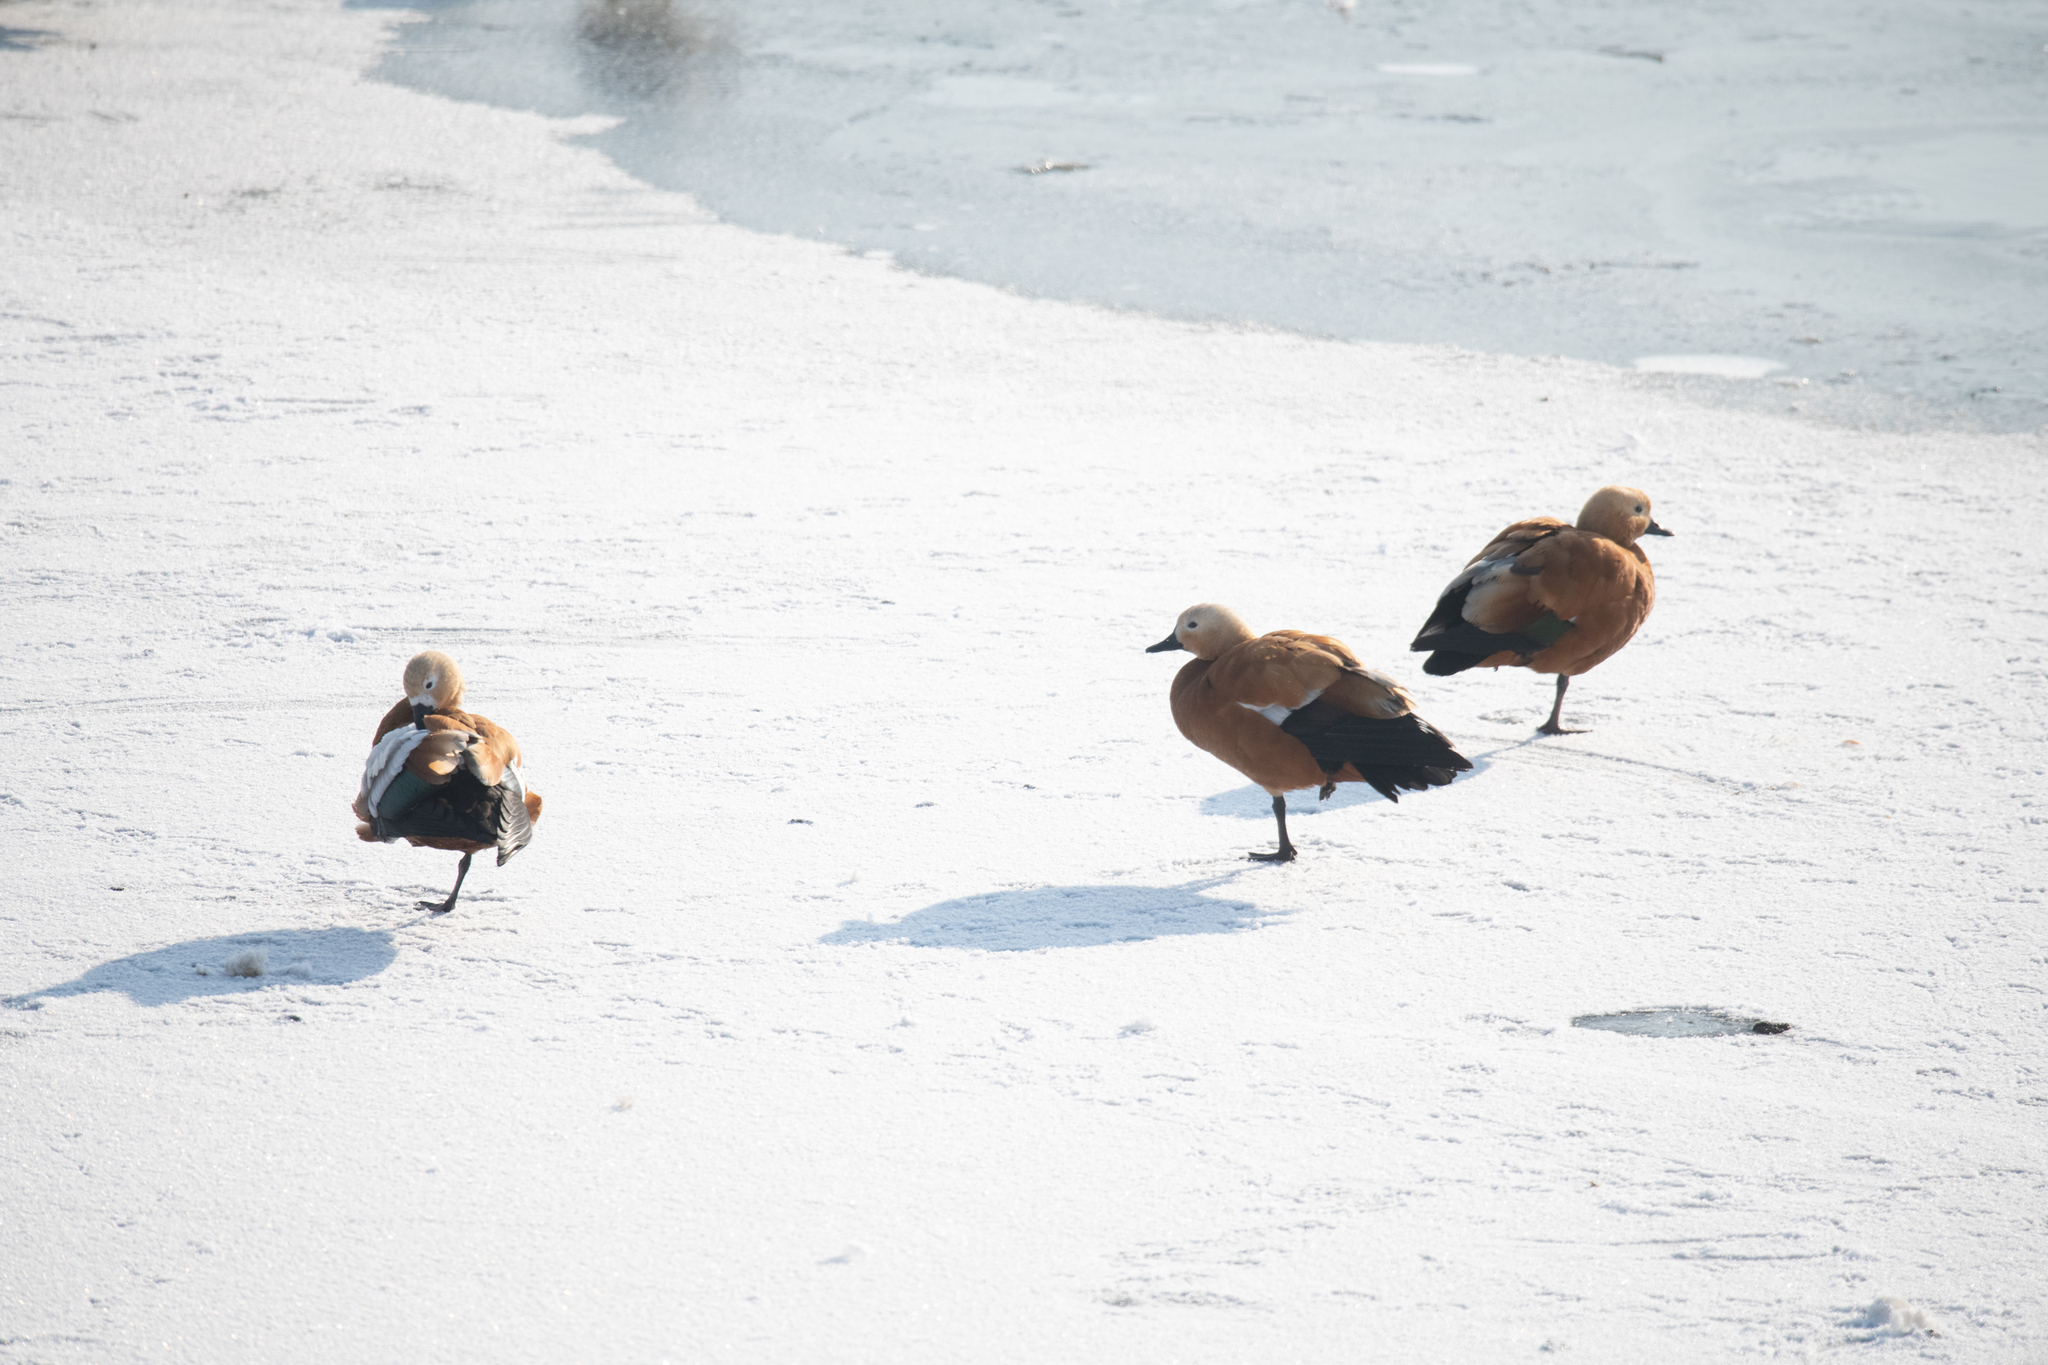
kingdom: Animalia
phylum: Chordata
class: Aves
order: Anseriformes
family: Anatidae
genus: Tadorna
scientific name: Tadorna ferruginea
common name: Ruddy shelduck
